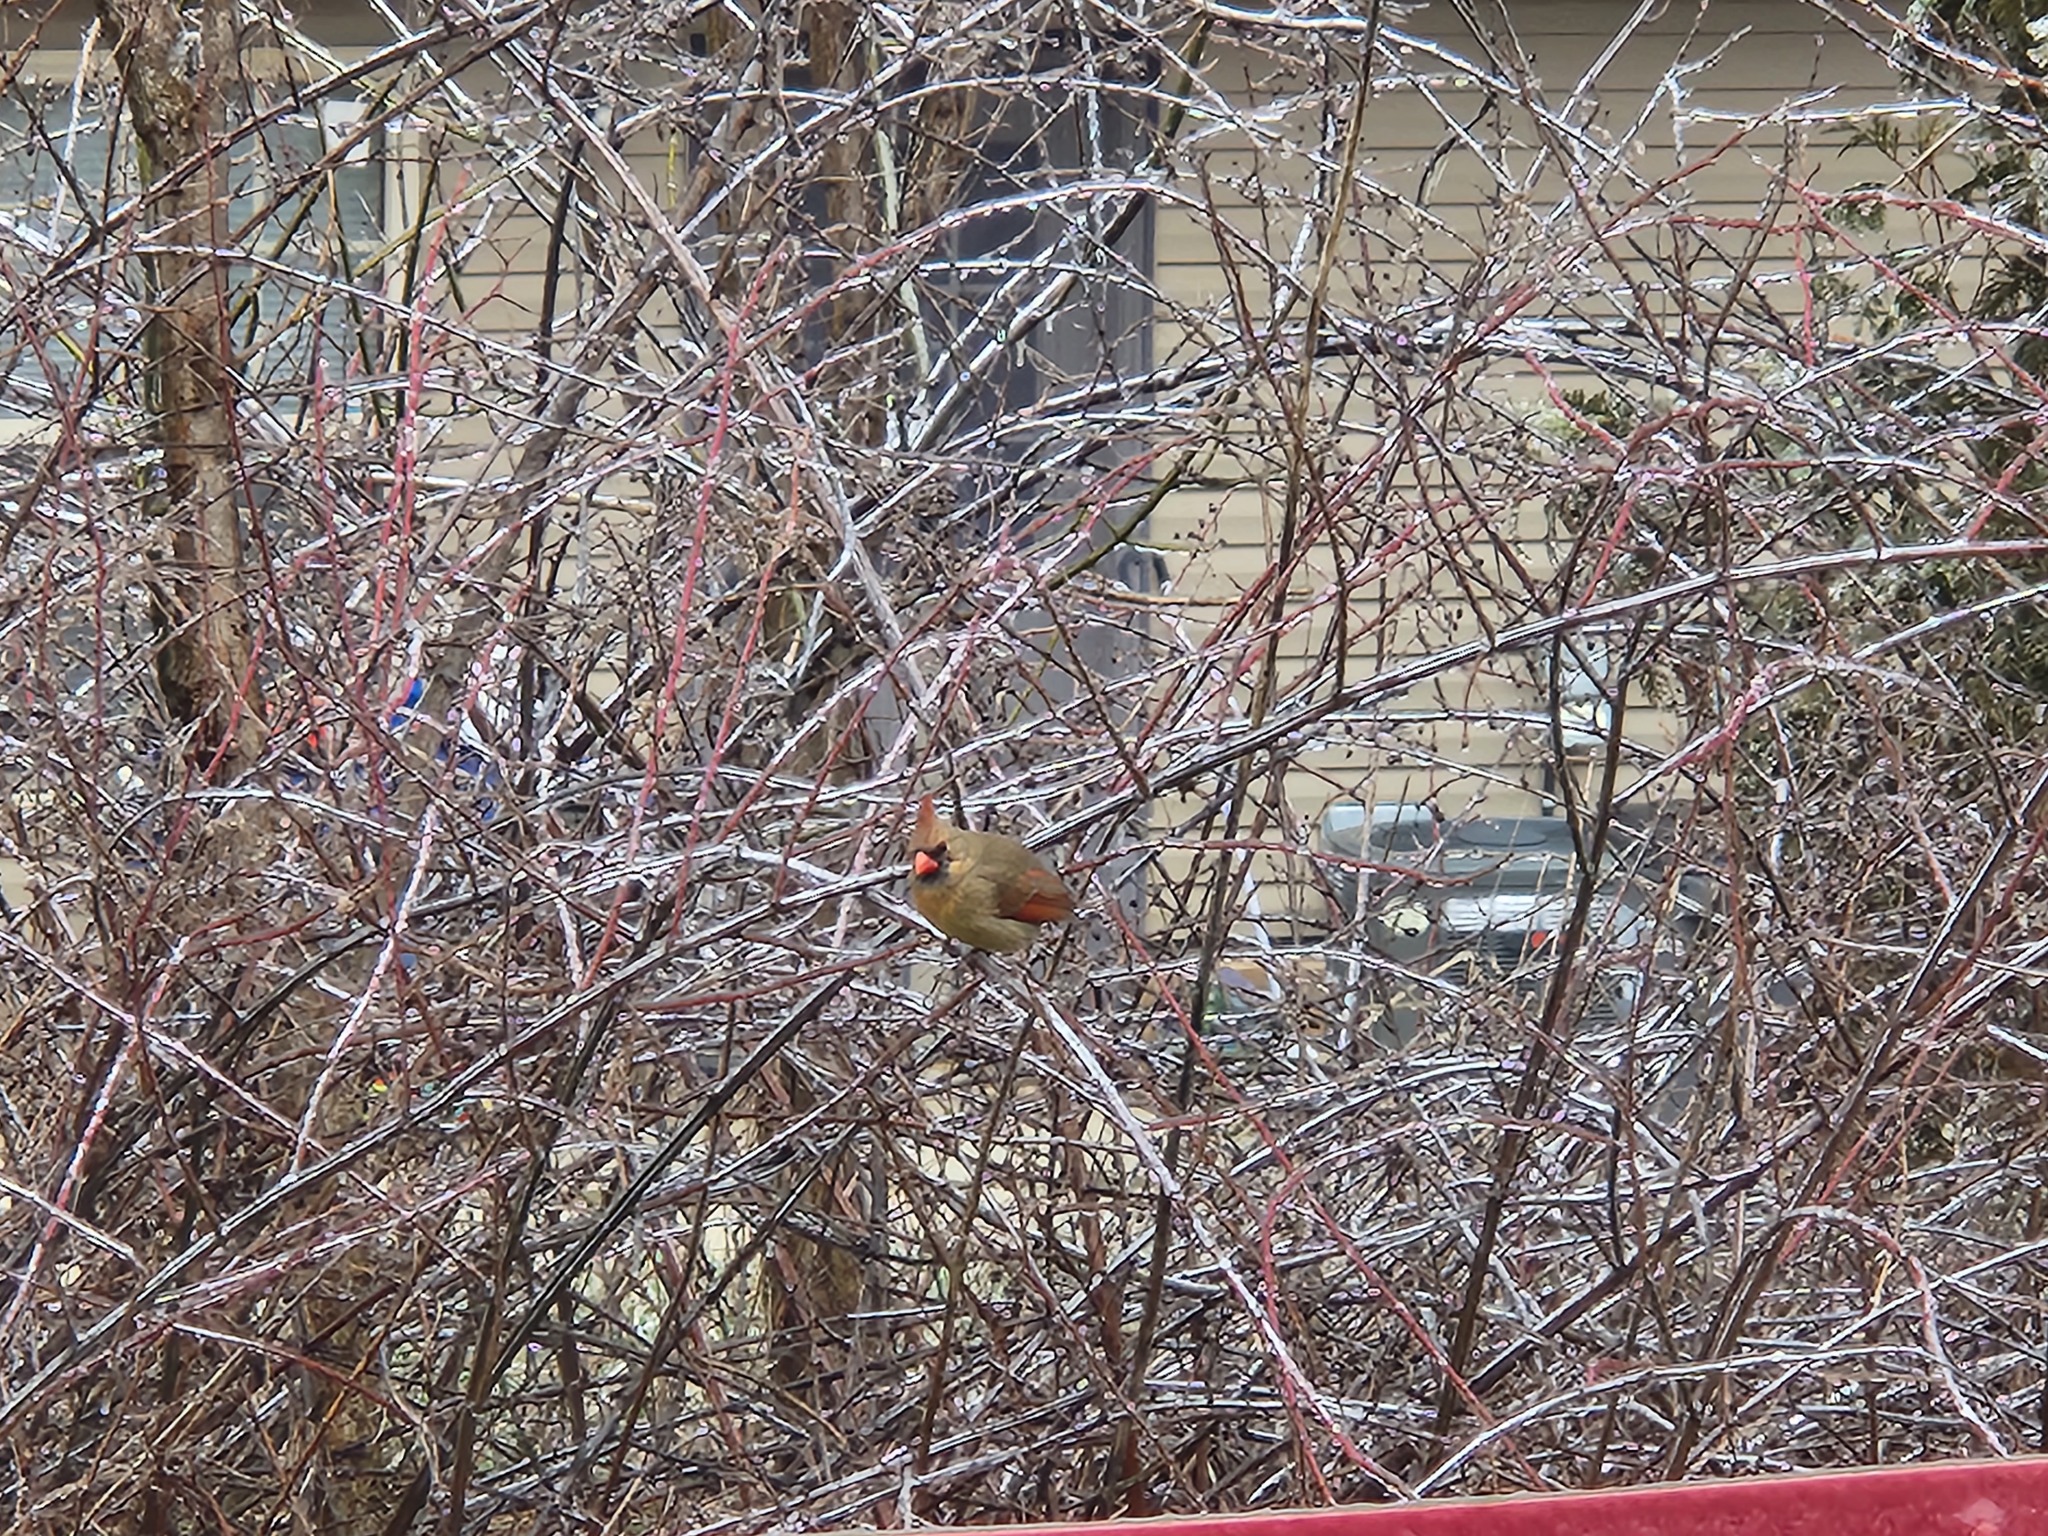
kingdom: Animalia
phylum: Chordata
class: Aves
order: Passeriformes
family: Cardinalidae
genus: Cardinalis
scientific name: Cardinalis cardinalis
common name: Northern cardinal
